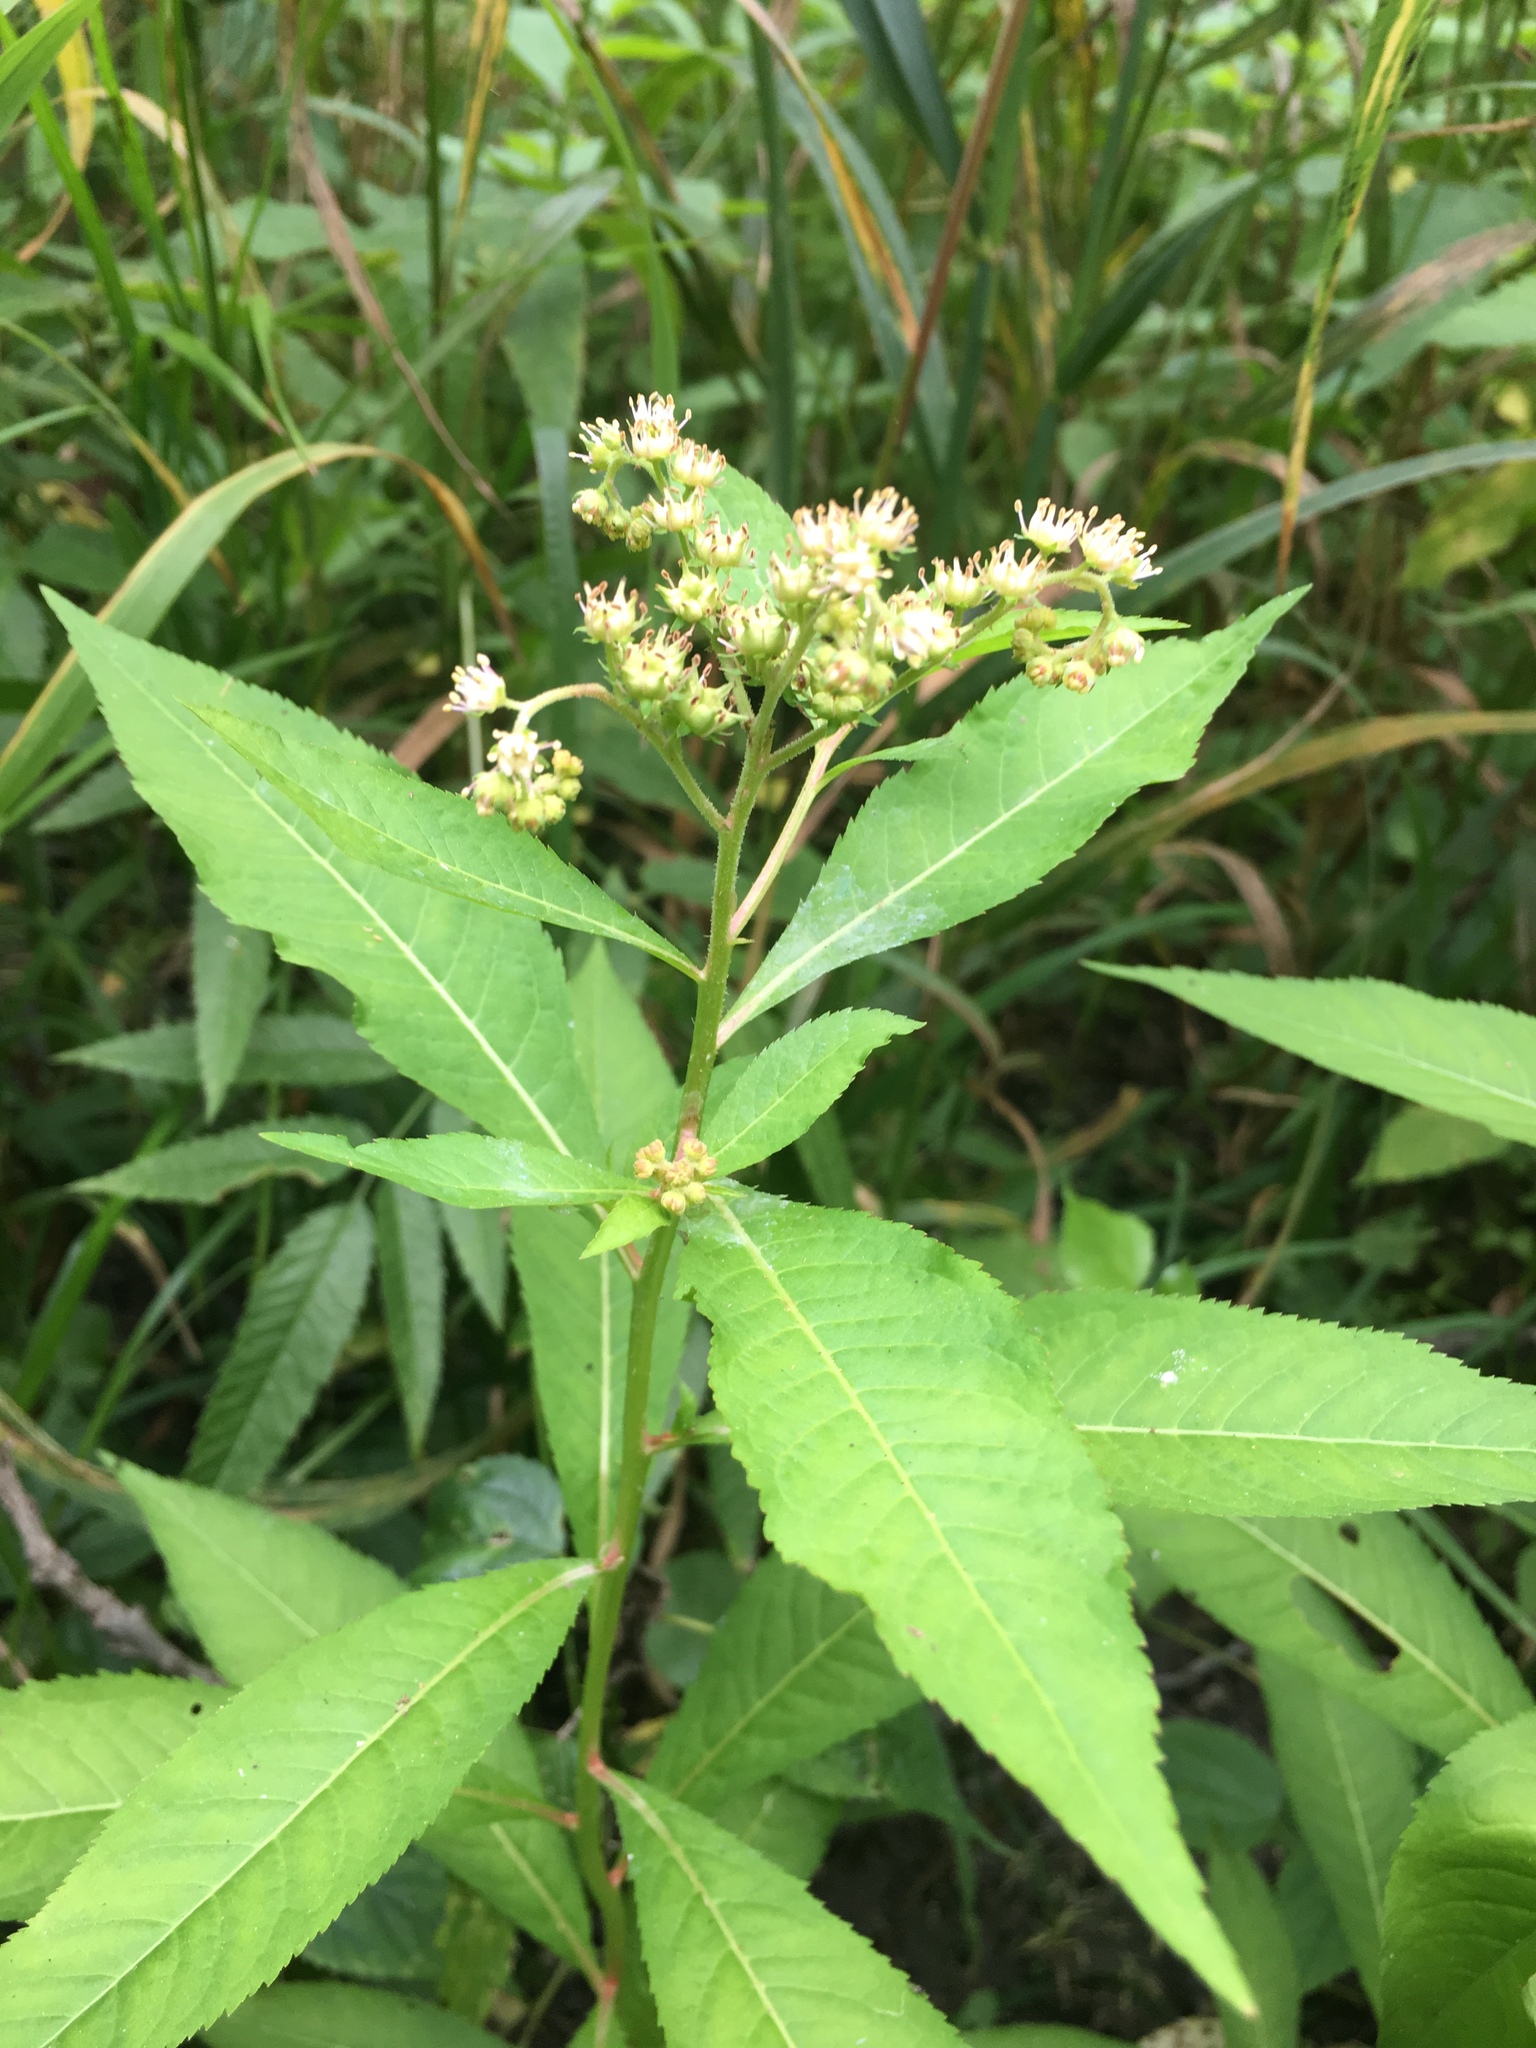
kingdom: Plantae
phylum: Tracheophyta
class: Magnoliopsida
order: Saxifragales
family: Penthoraceae
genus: Penthorum
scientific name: Penthorum sedoides
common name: Ditch stonecrop
